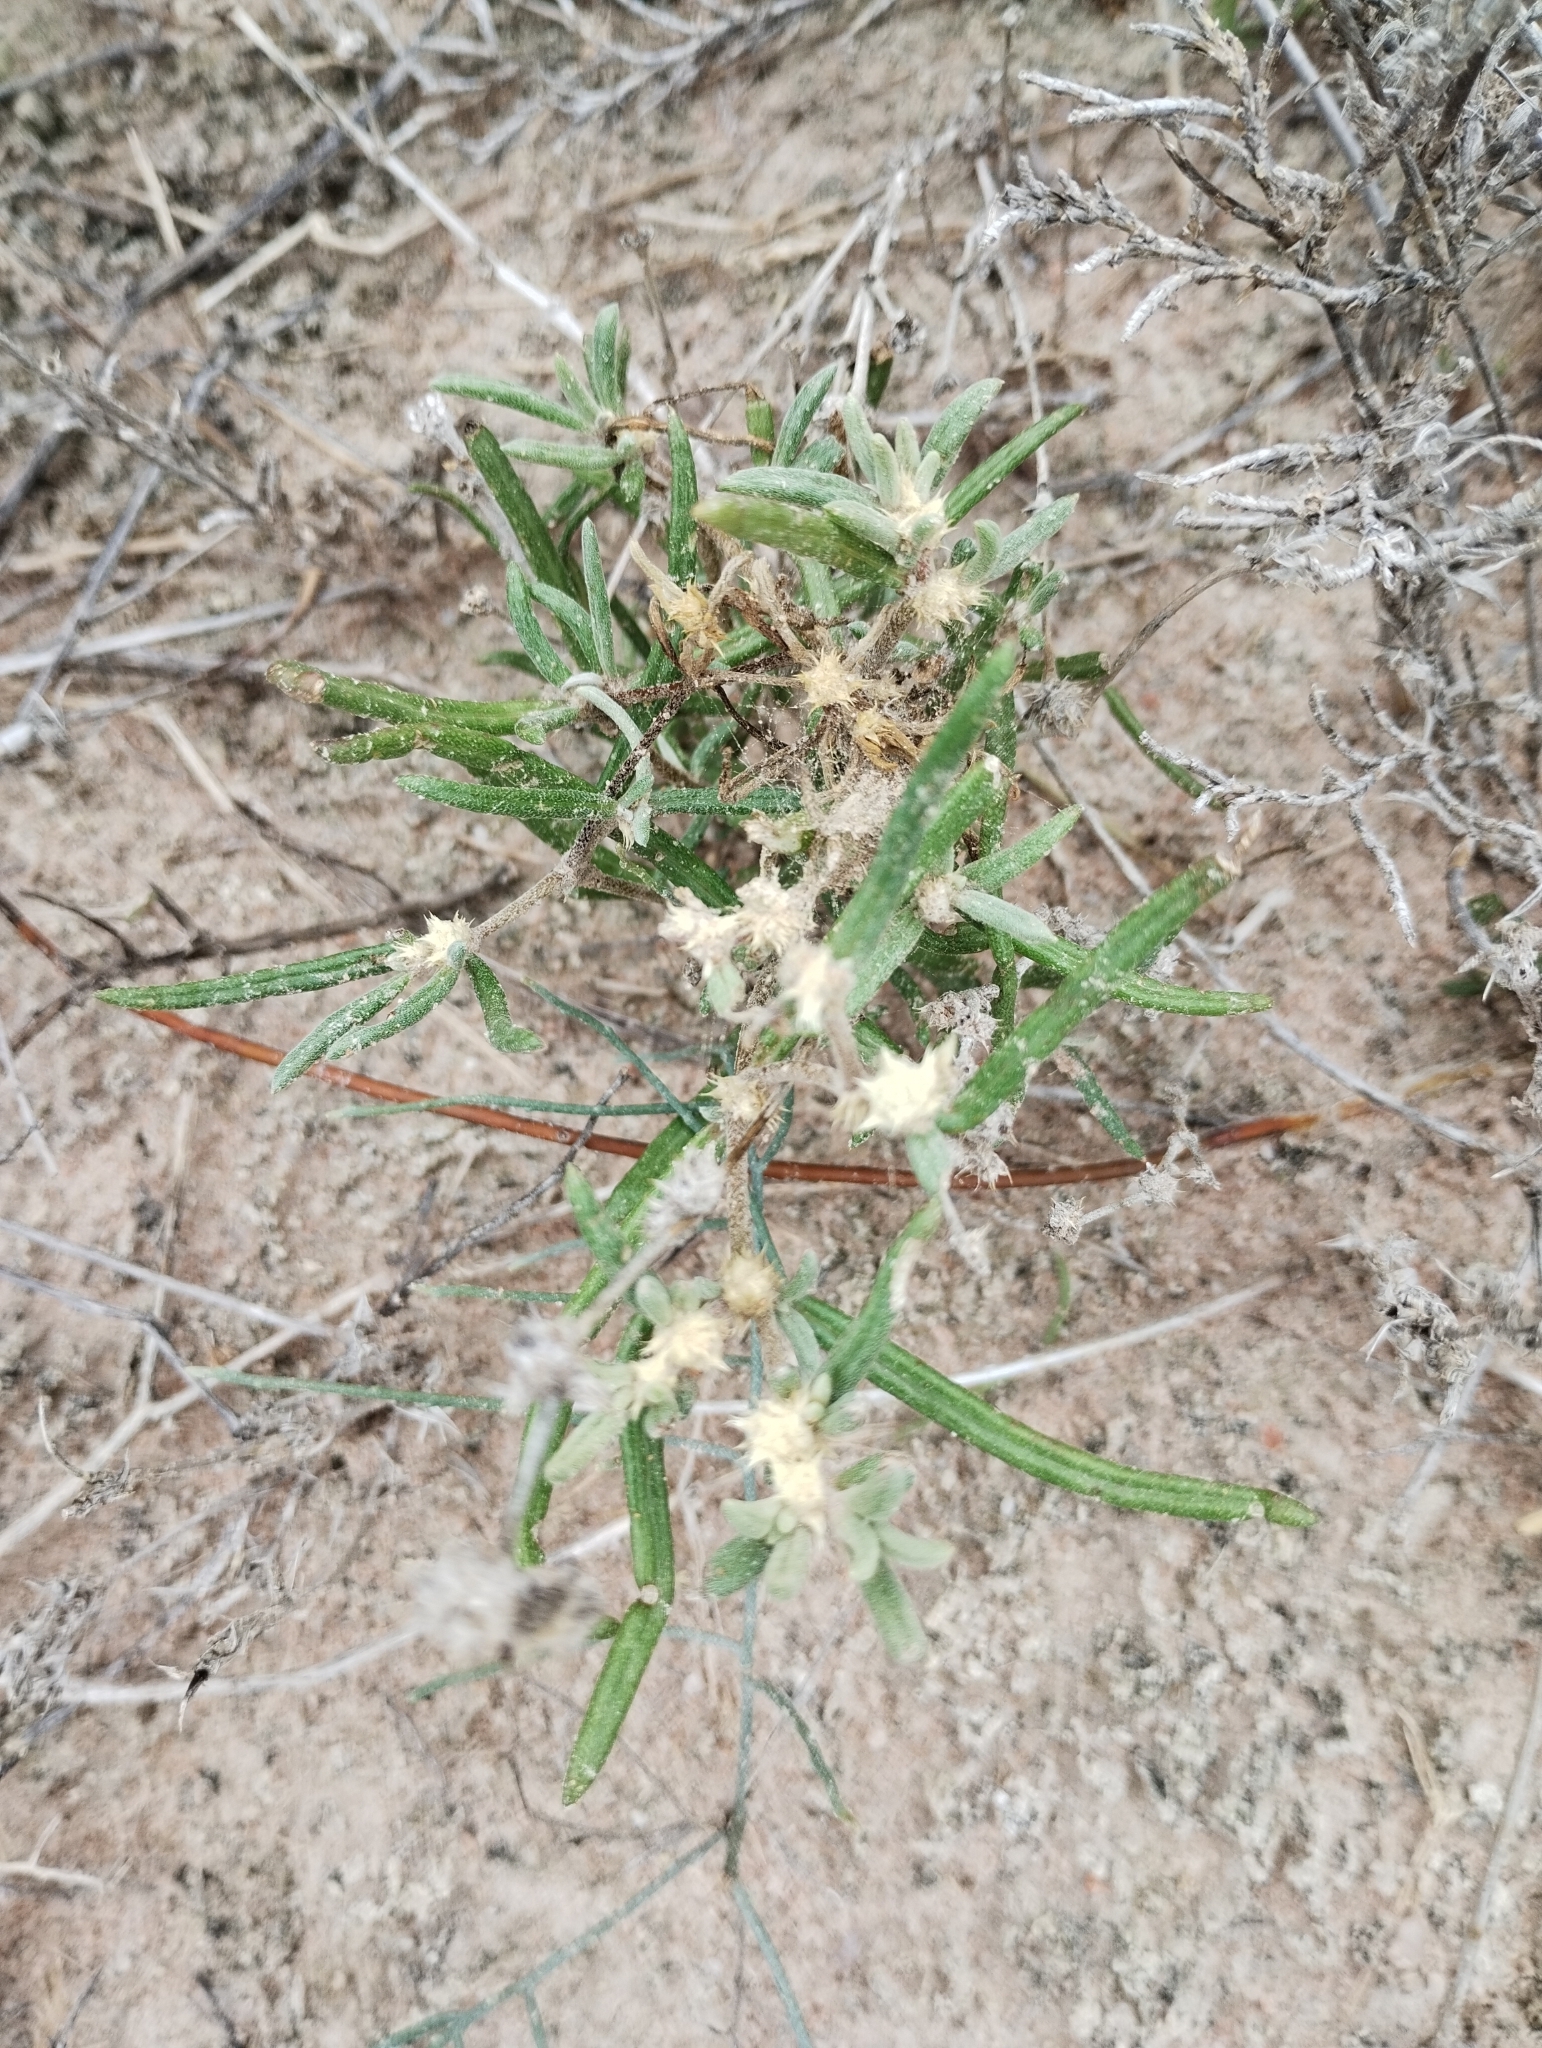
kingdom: Plantae
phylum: Tracheophyta
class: Magnoliopsida
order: Caryophyllales
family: Amaranthaceae
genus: Alternanthera
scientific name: Alternanthera nodifera
